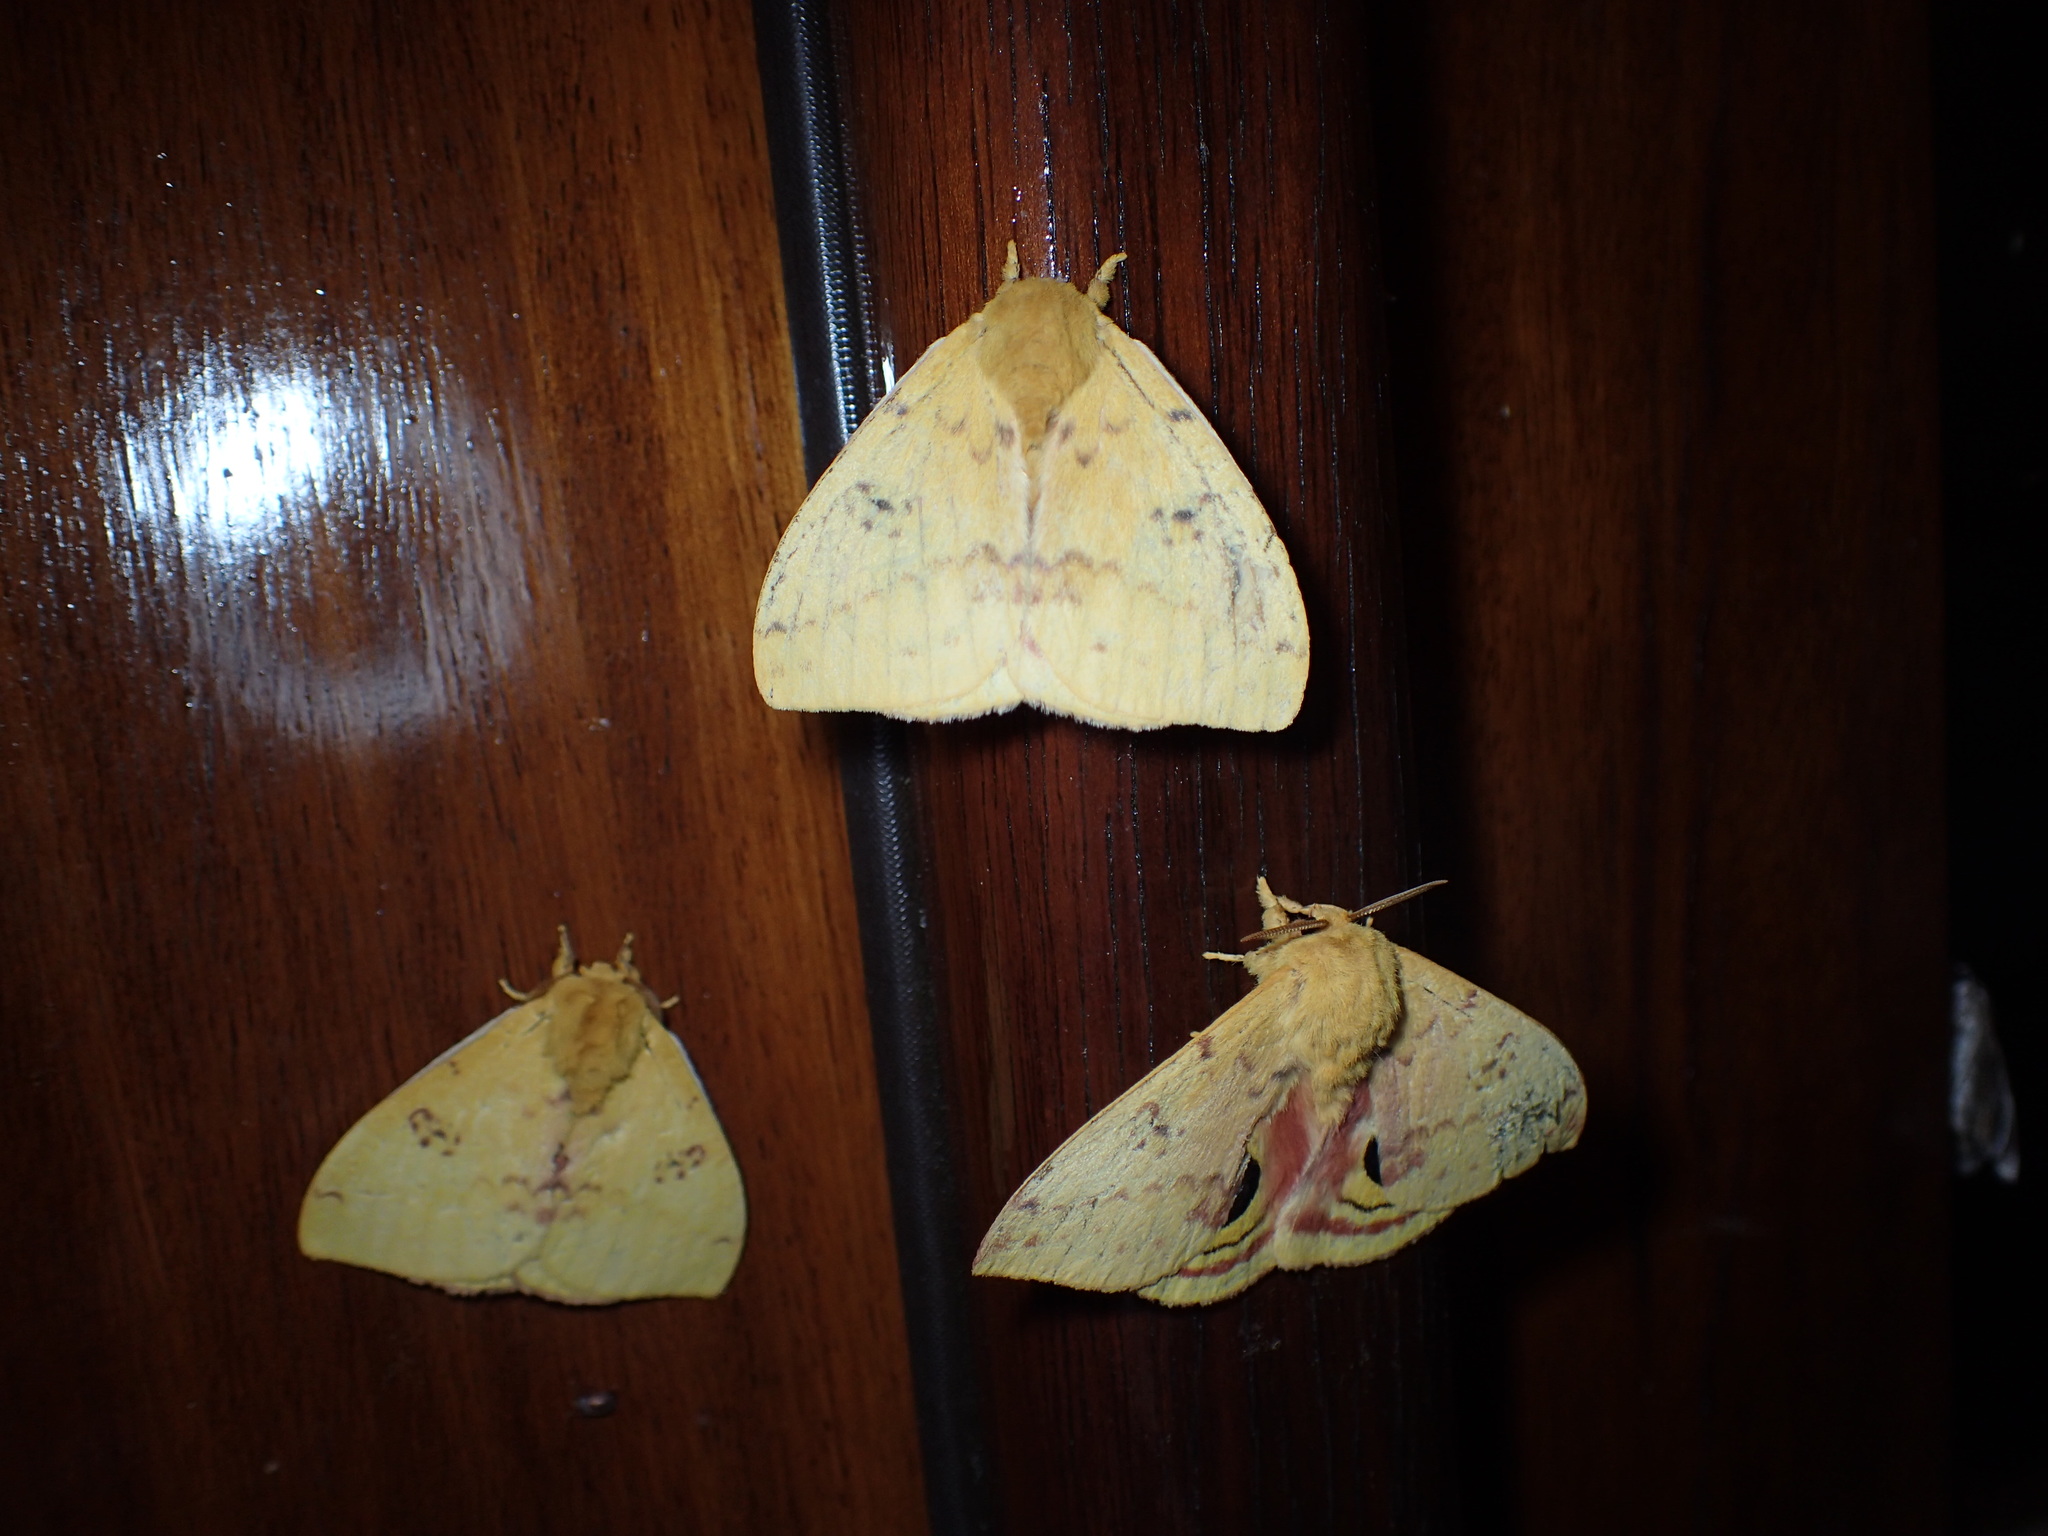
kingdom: Animalia
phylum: Arthropoda
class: Insecta
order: Lepidoptera
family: Saturniidae
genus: Automeris
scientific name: Automeris io
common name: Io moth
